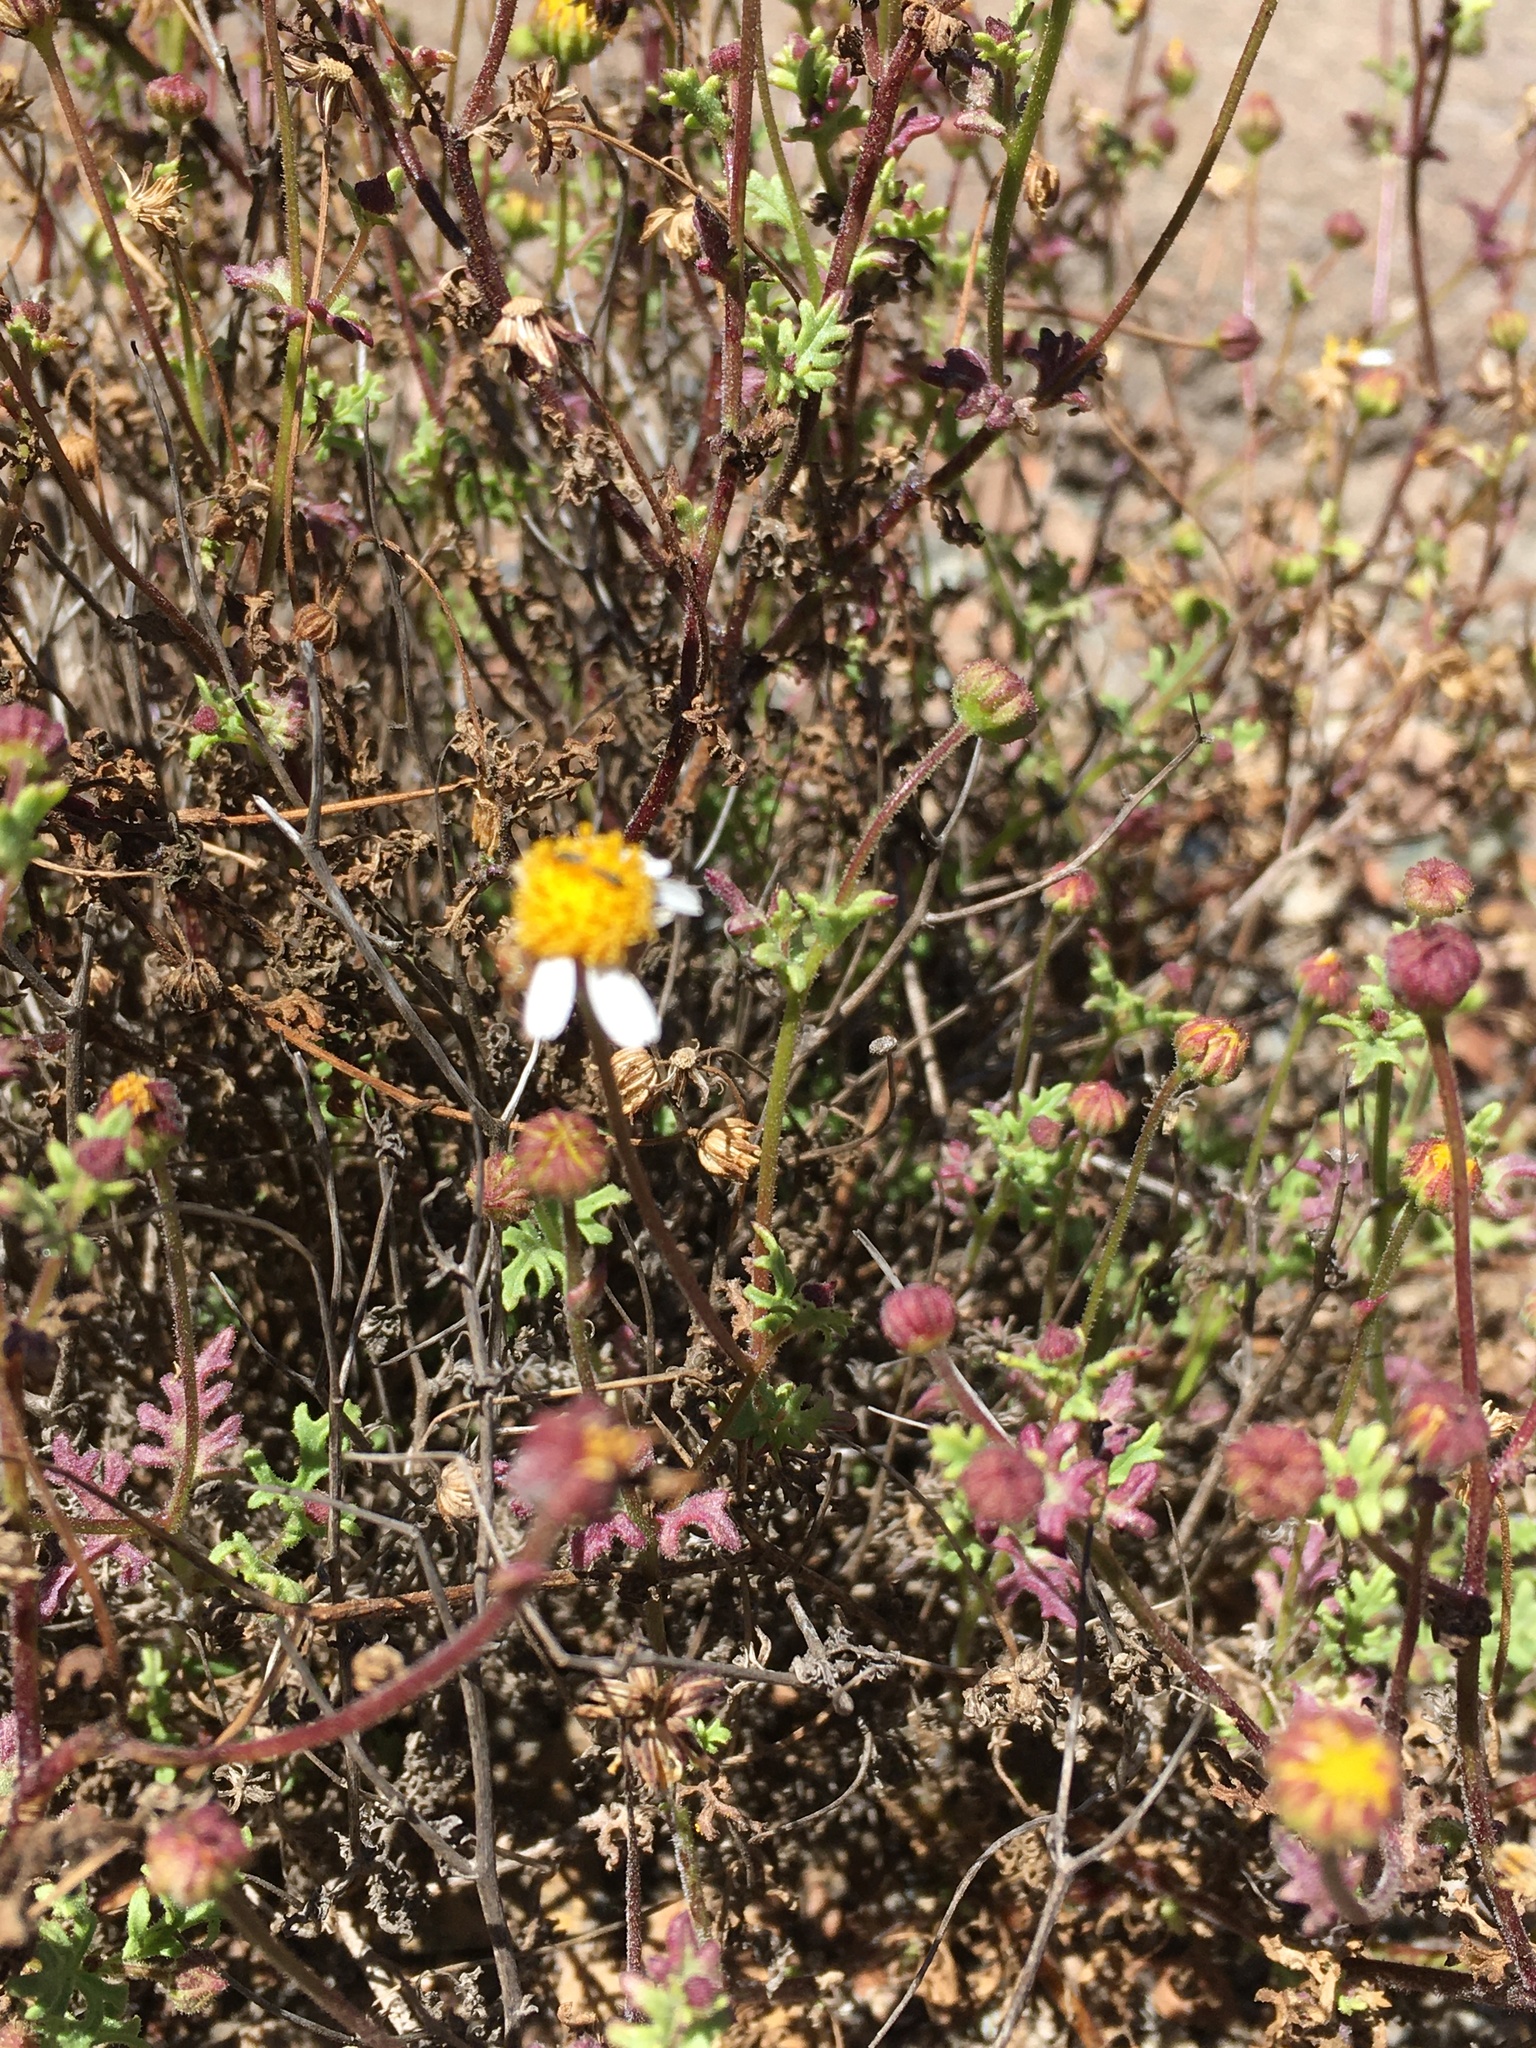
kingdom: Plantae
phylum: Tracheophyta
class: Magnoliopsida
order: Asterales
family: Asteraceae
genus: Laphamia
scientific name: Laphamia emoryi
